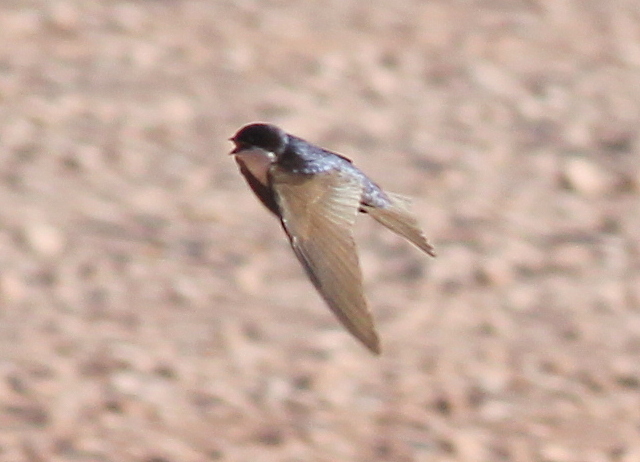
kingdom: Animalia
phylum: Chordata
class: Aves
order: Passeriformes
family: Hirundinidae
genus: Notiochelidon
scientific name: Notiochelidon cyanoleuca
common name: Blue-and-white swallow
